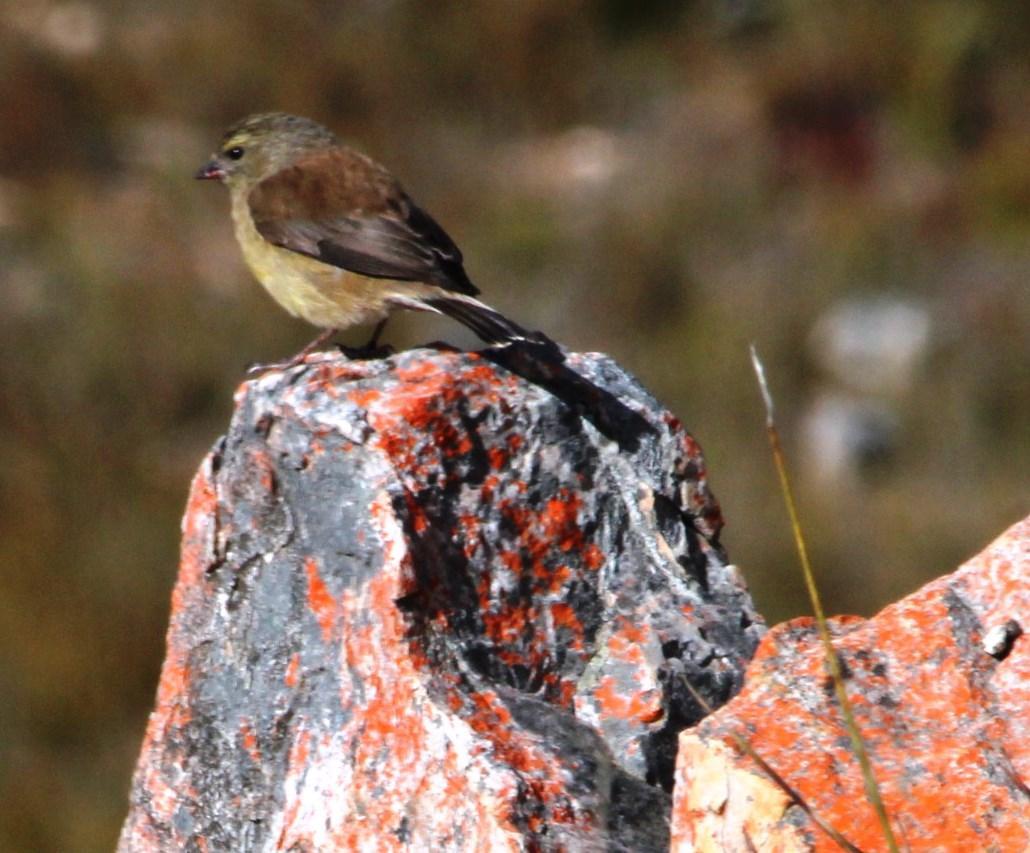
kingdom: Animalia
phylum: Chordata
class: Aves
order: Passeriformes
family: Fringillidae
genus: Crithagra
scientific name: Crithagra totta
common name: Cape siskin
